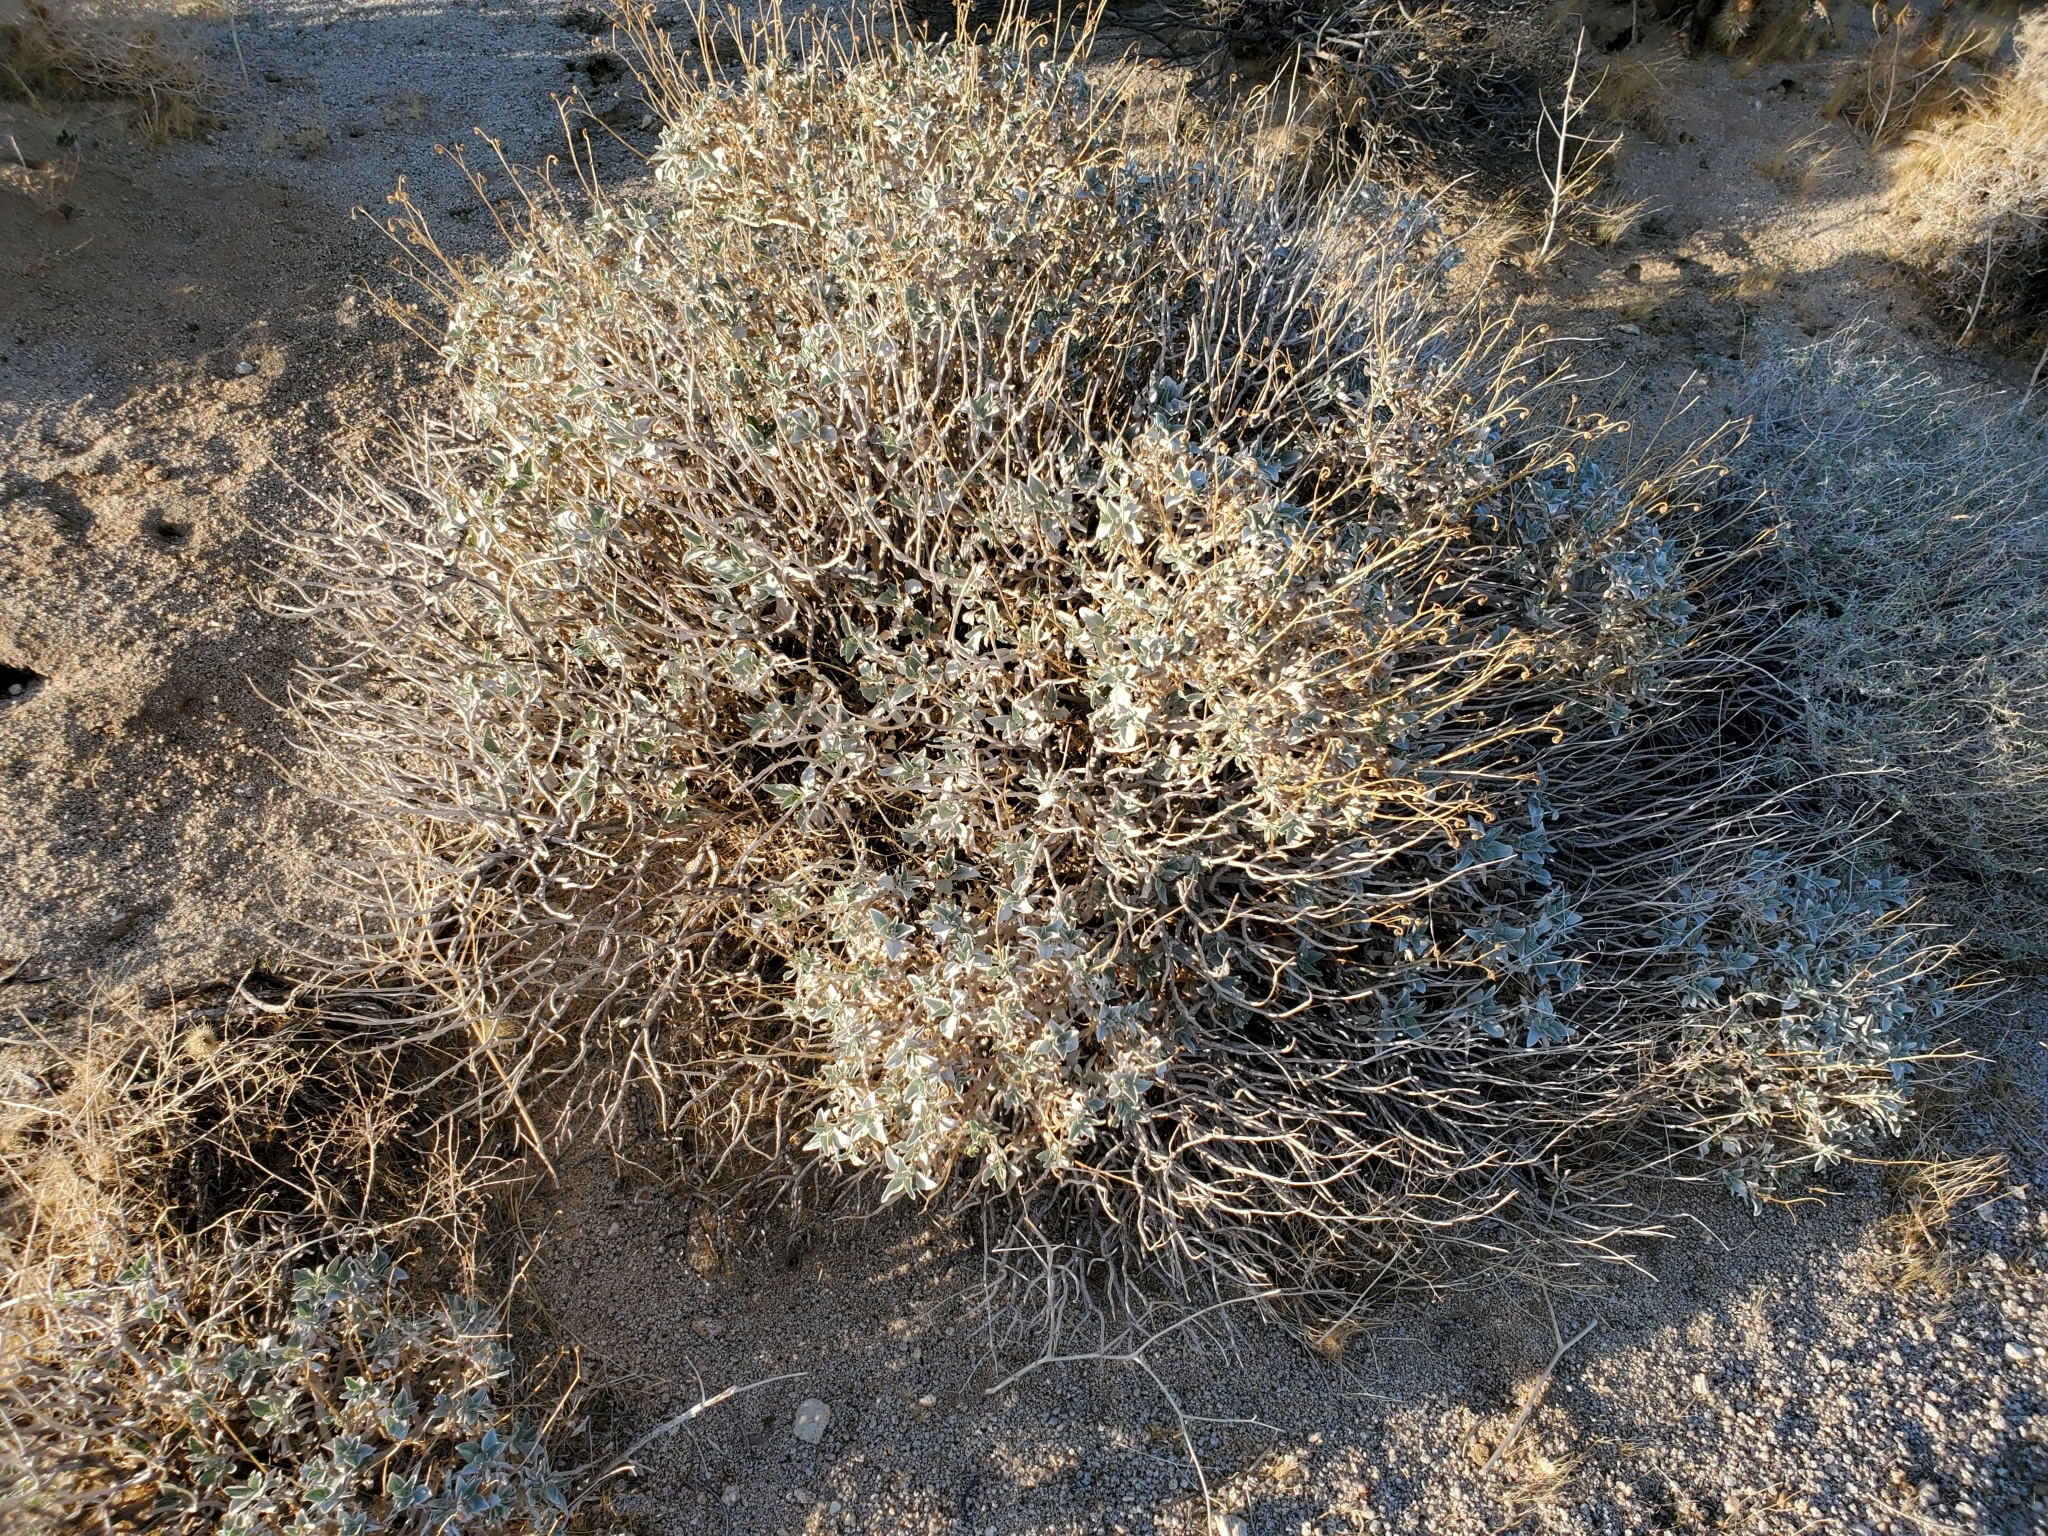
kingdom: Plantae
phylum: Tracheophyta
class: Magnoliopsida
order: Asterales
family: Asteraceae
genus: Encelia
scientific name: Encelia farinosa
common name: Brittlebush
